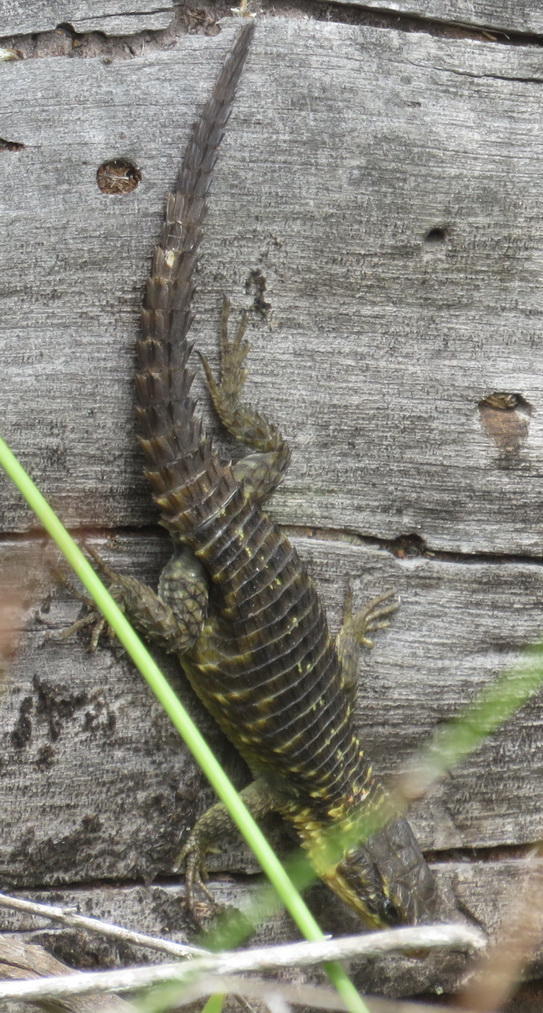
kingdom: Animalia
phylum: Chordata
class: Squamata
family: Cordylidae
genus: Cordylus
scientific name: Cordylus cordylus
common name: Cape girdled lizard
